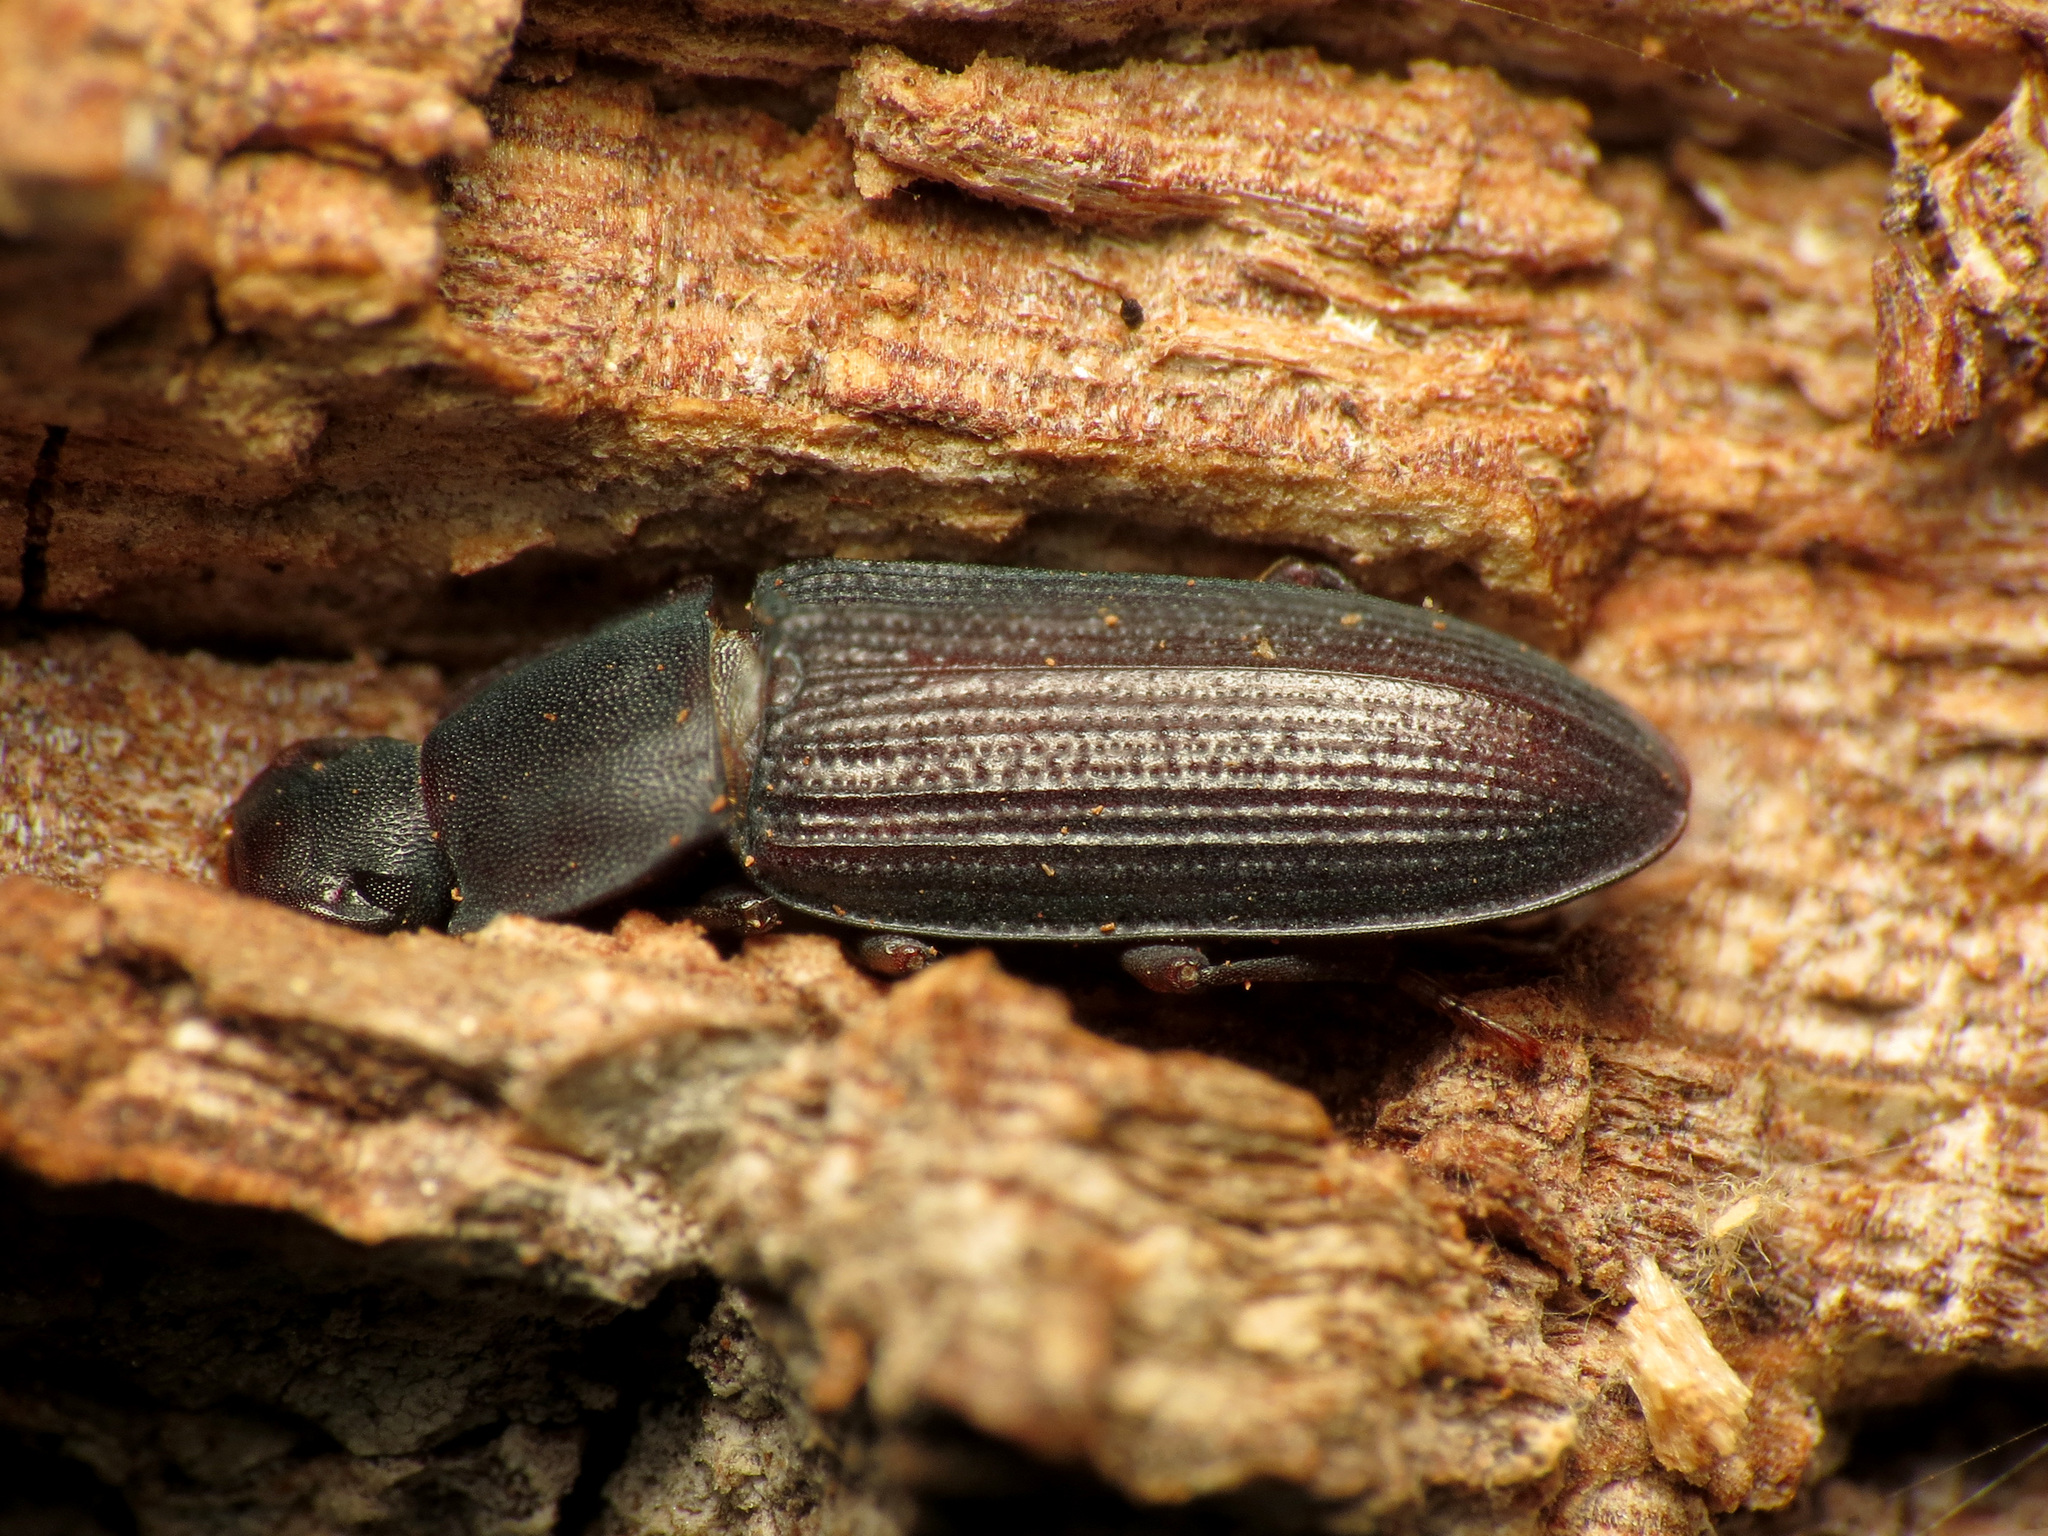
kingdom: Animalia
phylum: Arthropoda
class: Insecta
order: Coleoptera
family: Tenebrionidae
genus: Idiobates
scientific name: Idiobates castaneus
